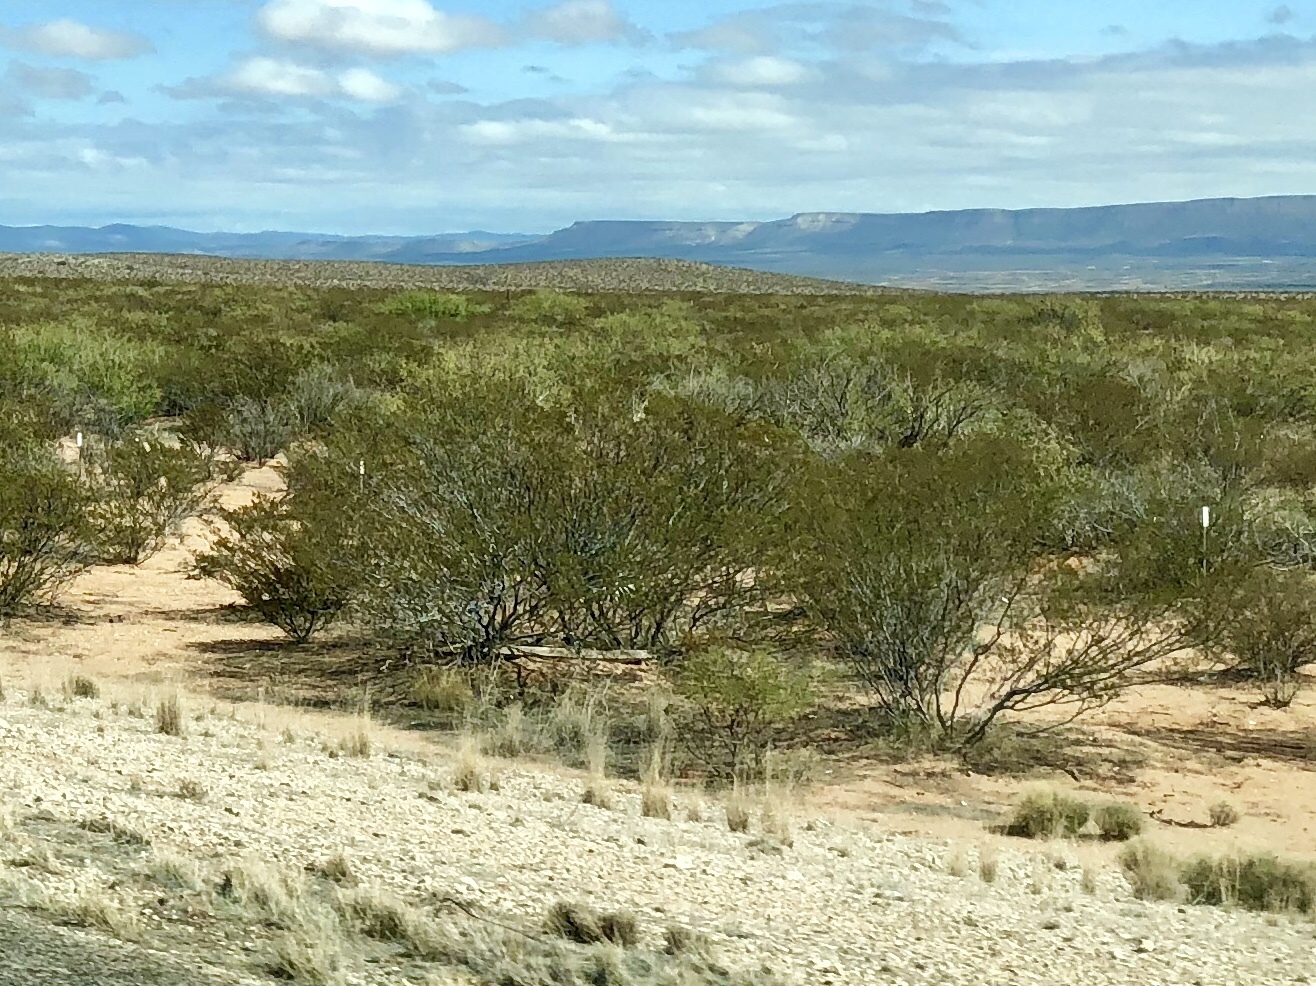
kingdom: Plantae
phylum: Tracheophyta
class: Magnoliopsida
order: Zygophyllales
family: Zygophyllaceae
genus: Larrea
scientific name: Larrea tridentata
